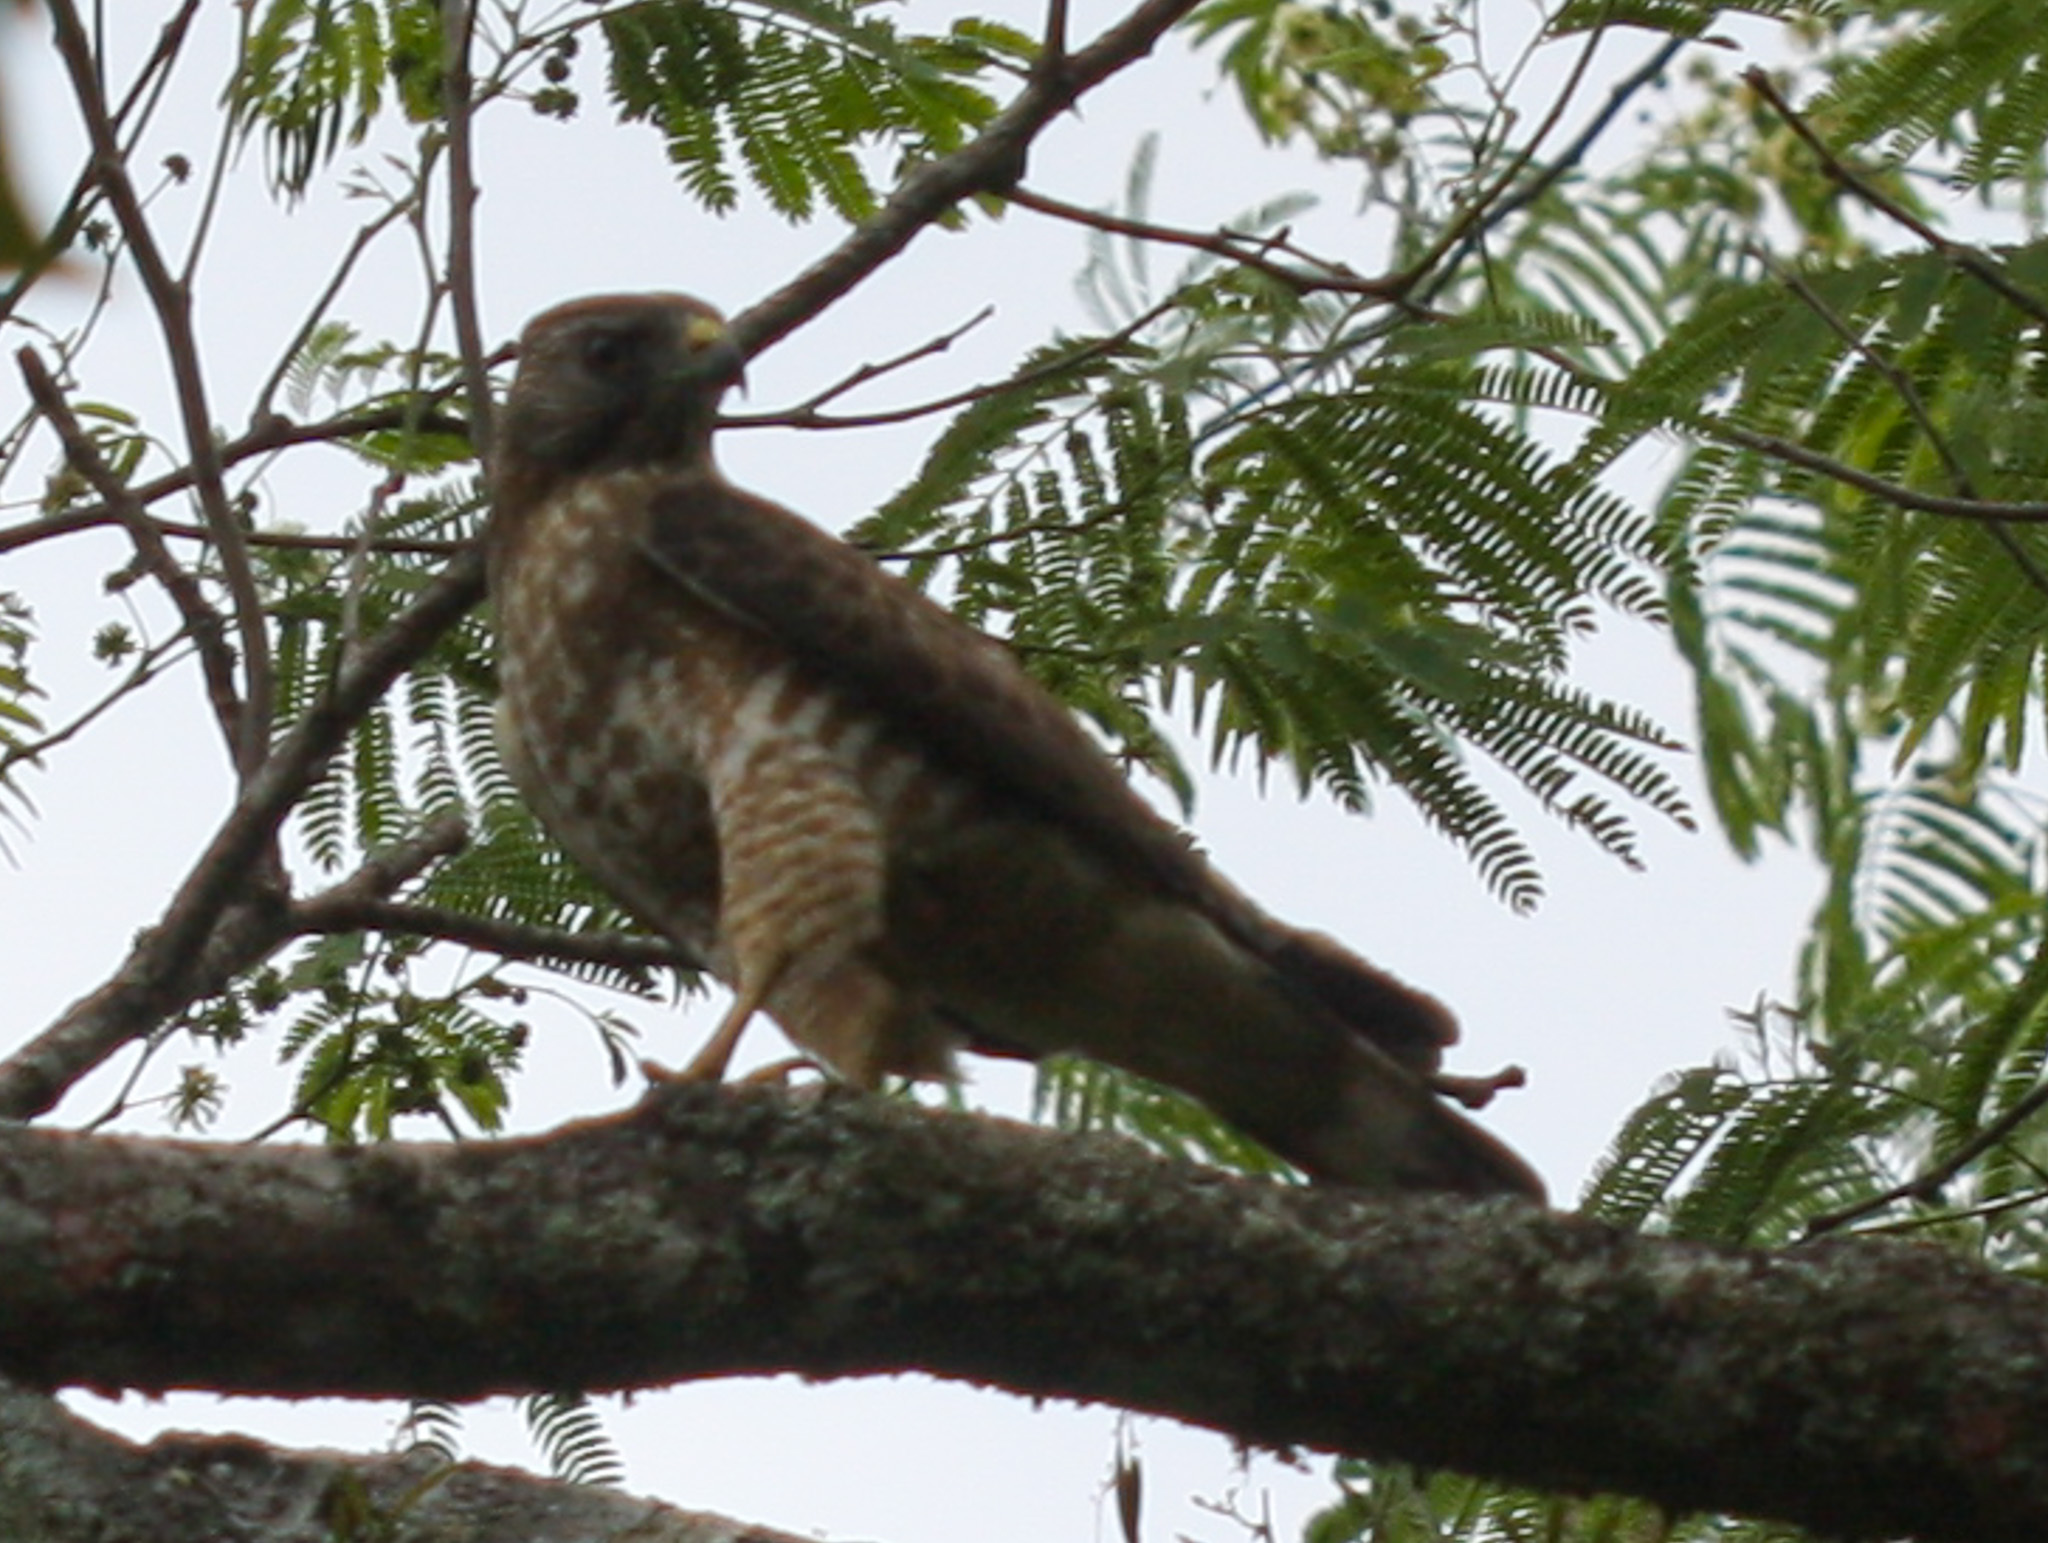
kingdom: Animalia
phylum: Chordata
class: Aves
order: Accipitriformes
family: Accipitridae
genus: Buteo
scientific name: Buteo platypterus
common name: Broad-winged hawk
